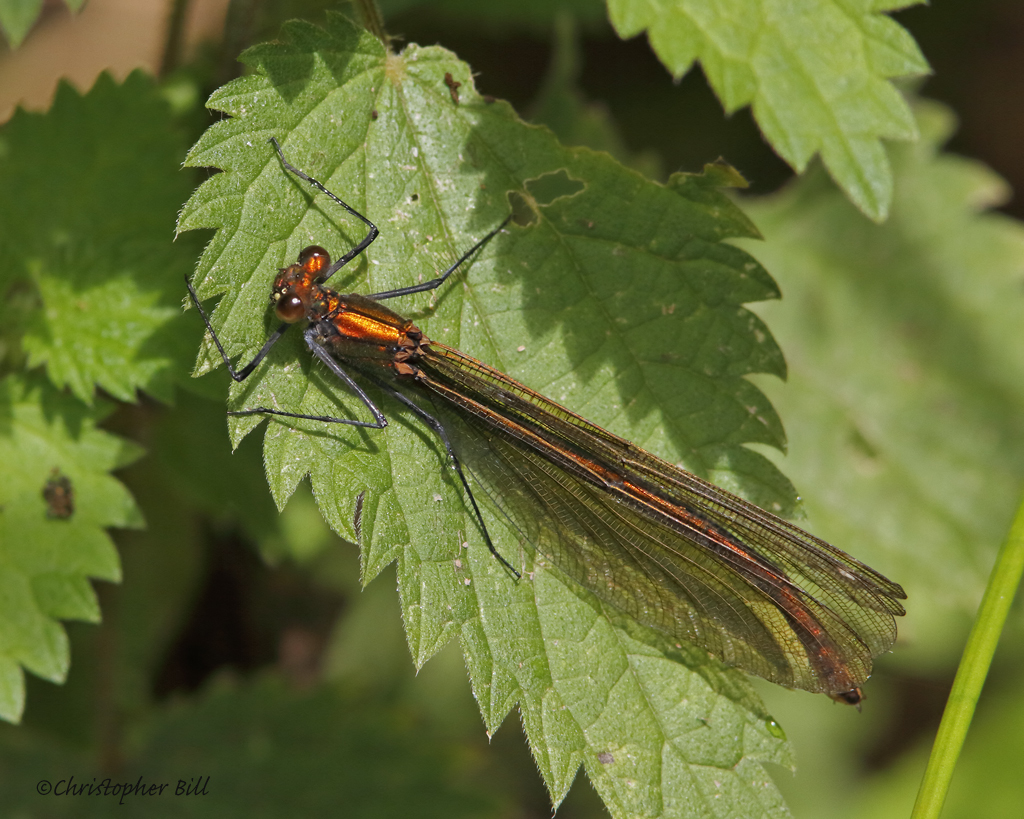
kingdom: Animalia
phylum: Arthropoda
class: Insecta
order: Odonata
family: Calopterygidae
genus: Calopteryx
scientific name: Calopteryx virgo
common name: Beautiful demoiselle
